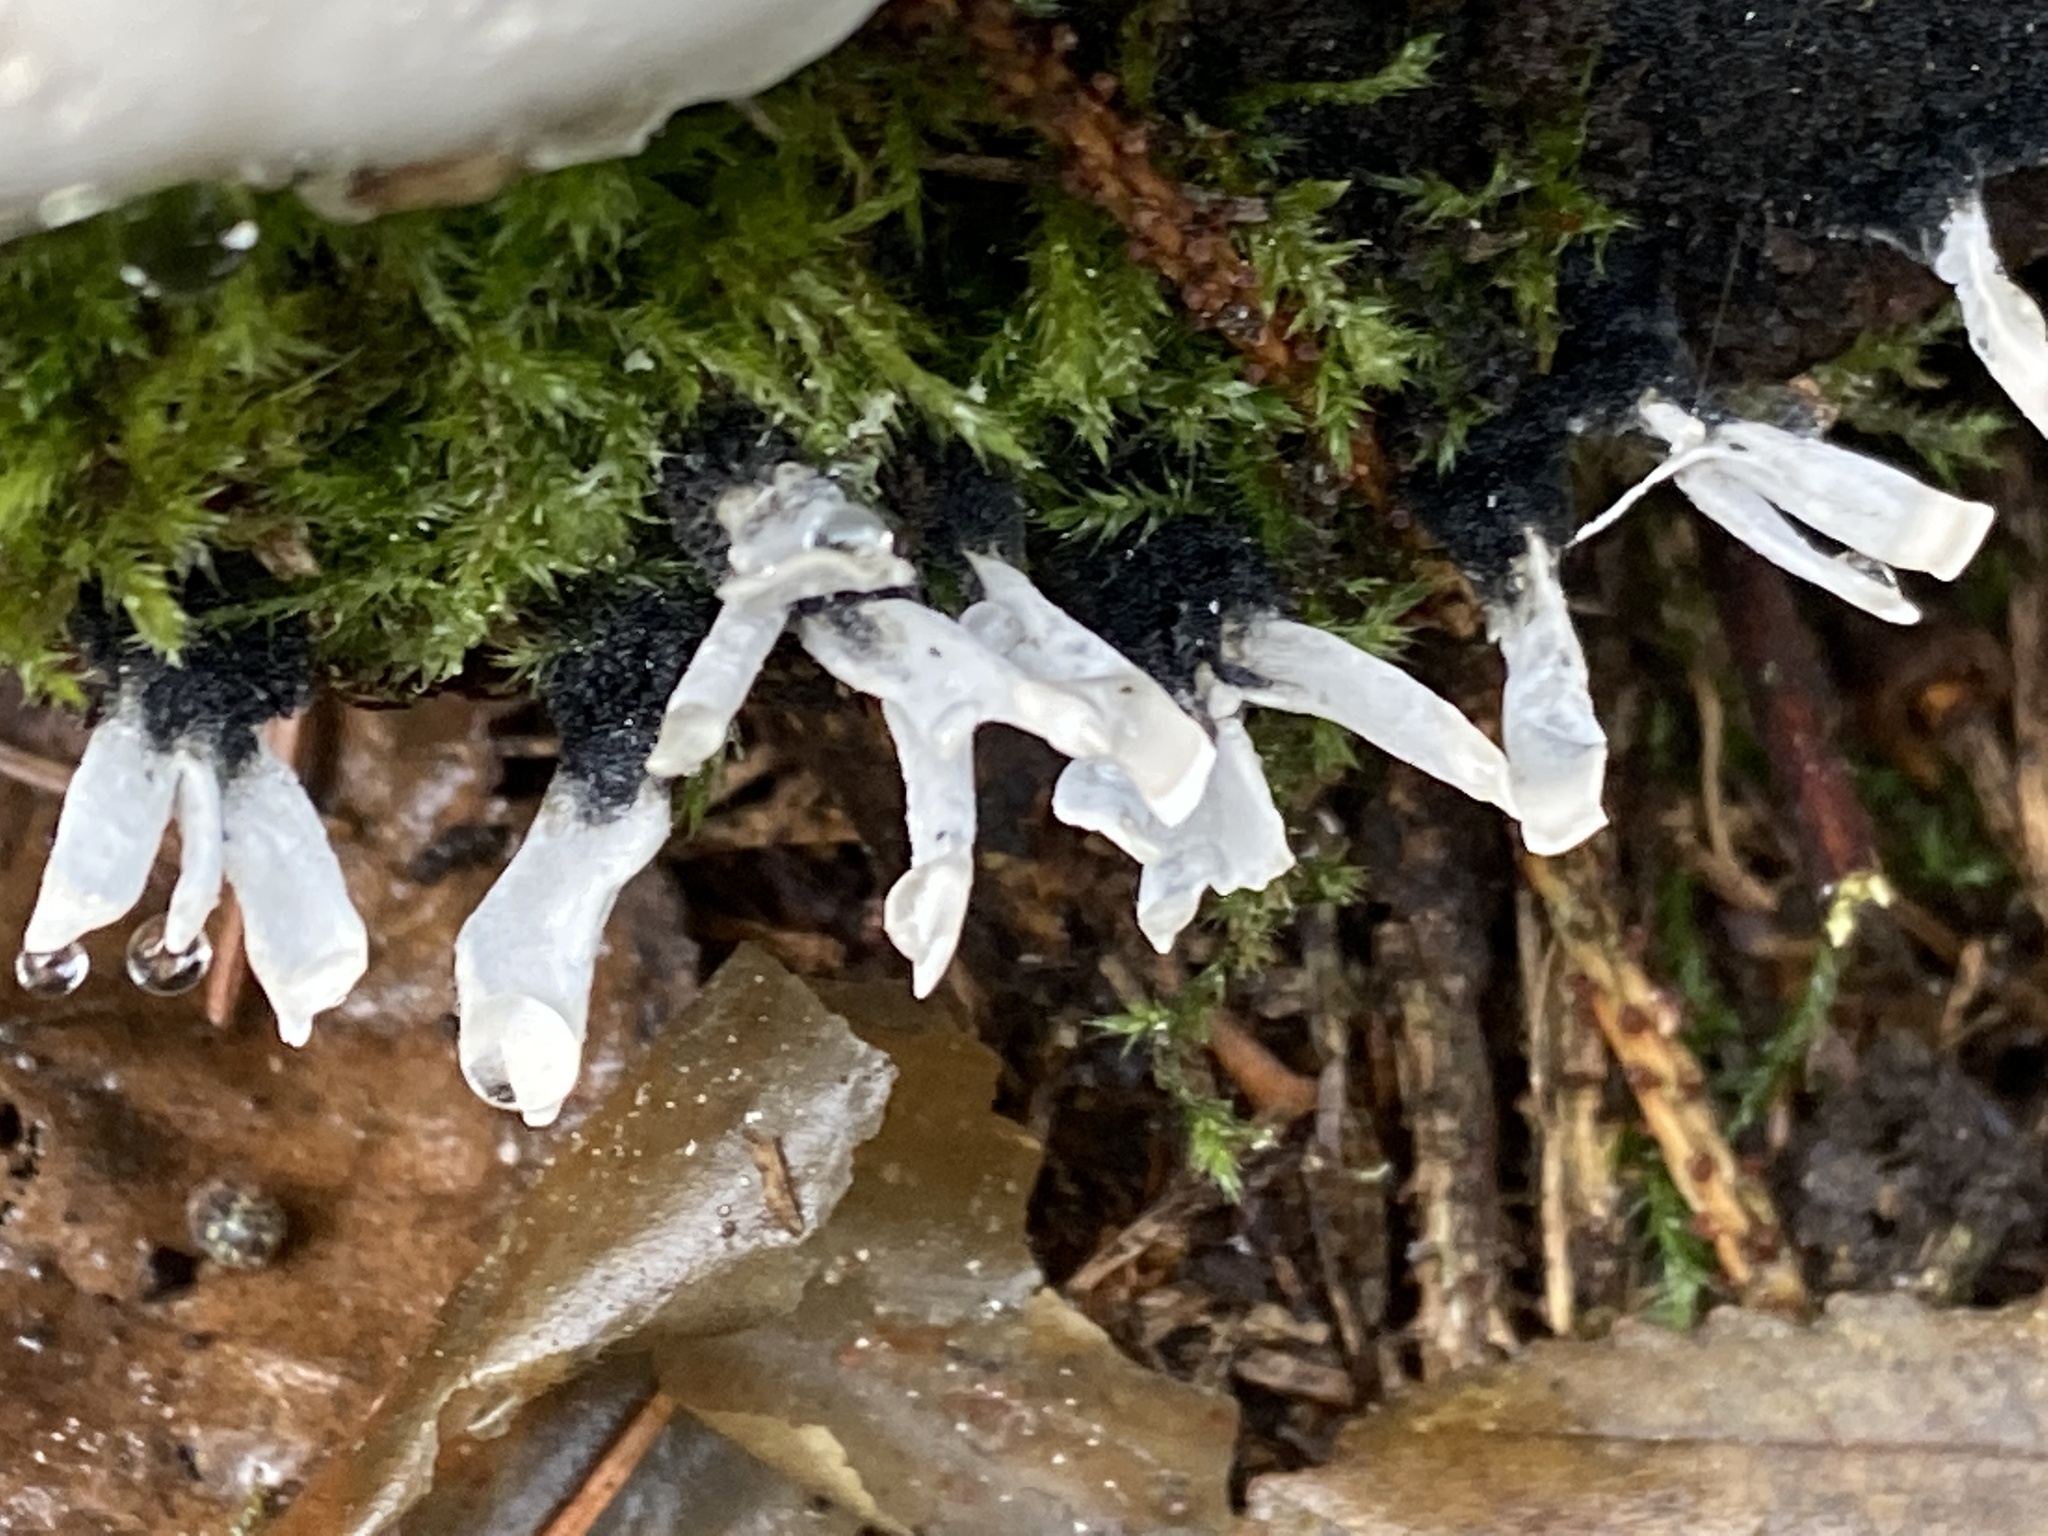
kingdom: Fungi
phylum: Ascomycota
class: Sordariomycetes
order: Xylariales
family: Xylariaceae
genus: Xylaria
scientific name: Xylaria hypoxylon
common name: Candle-snuff fungus
